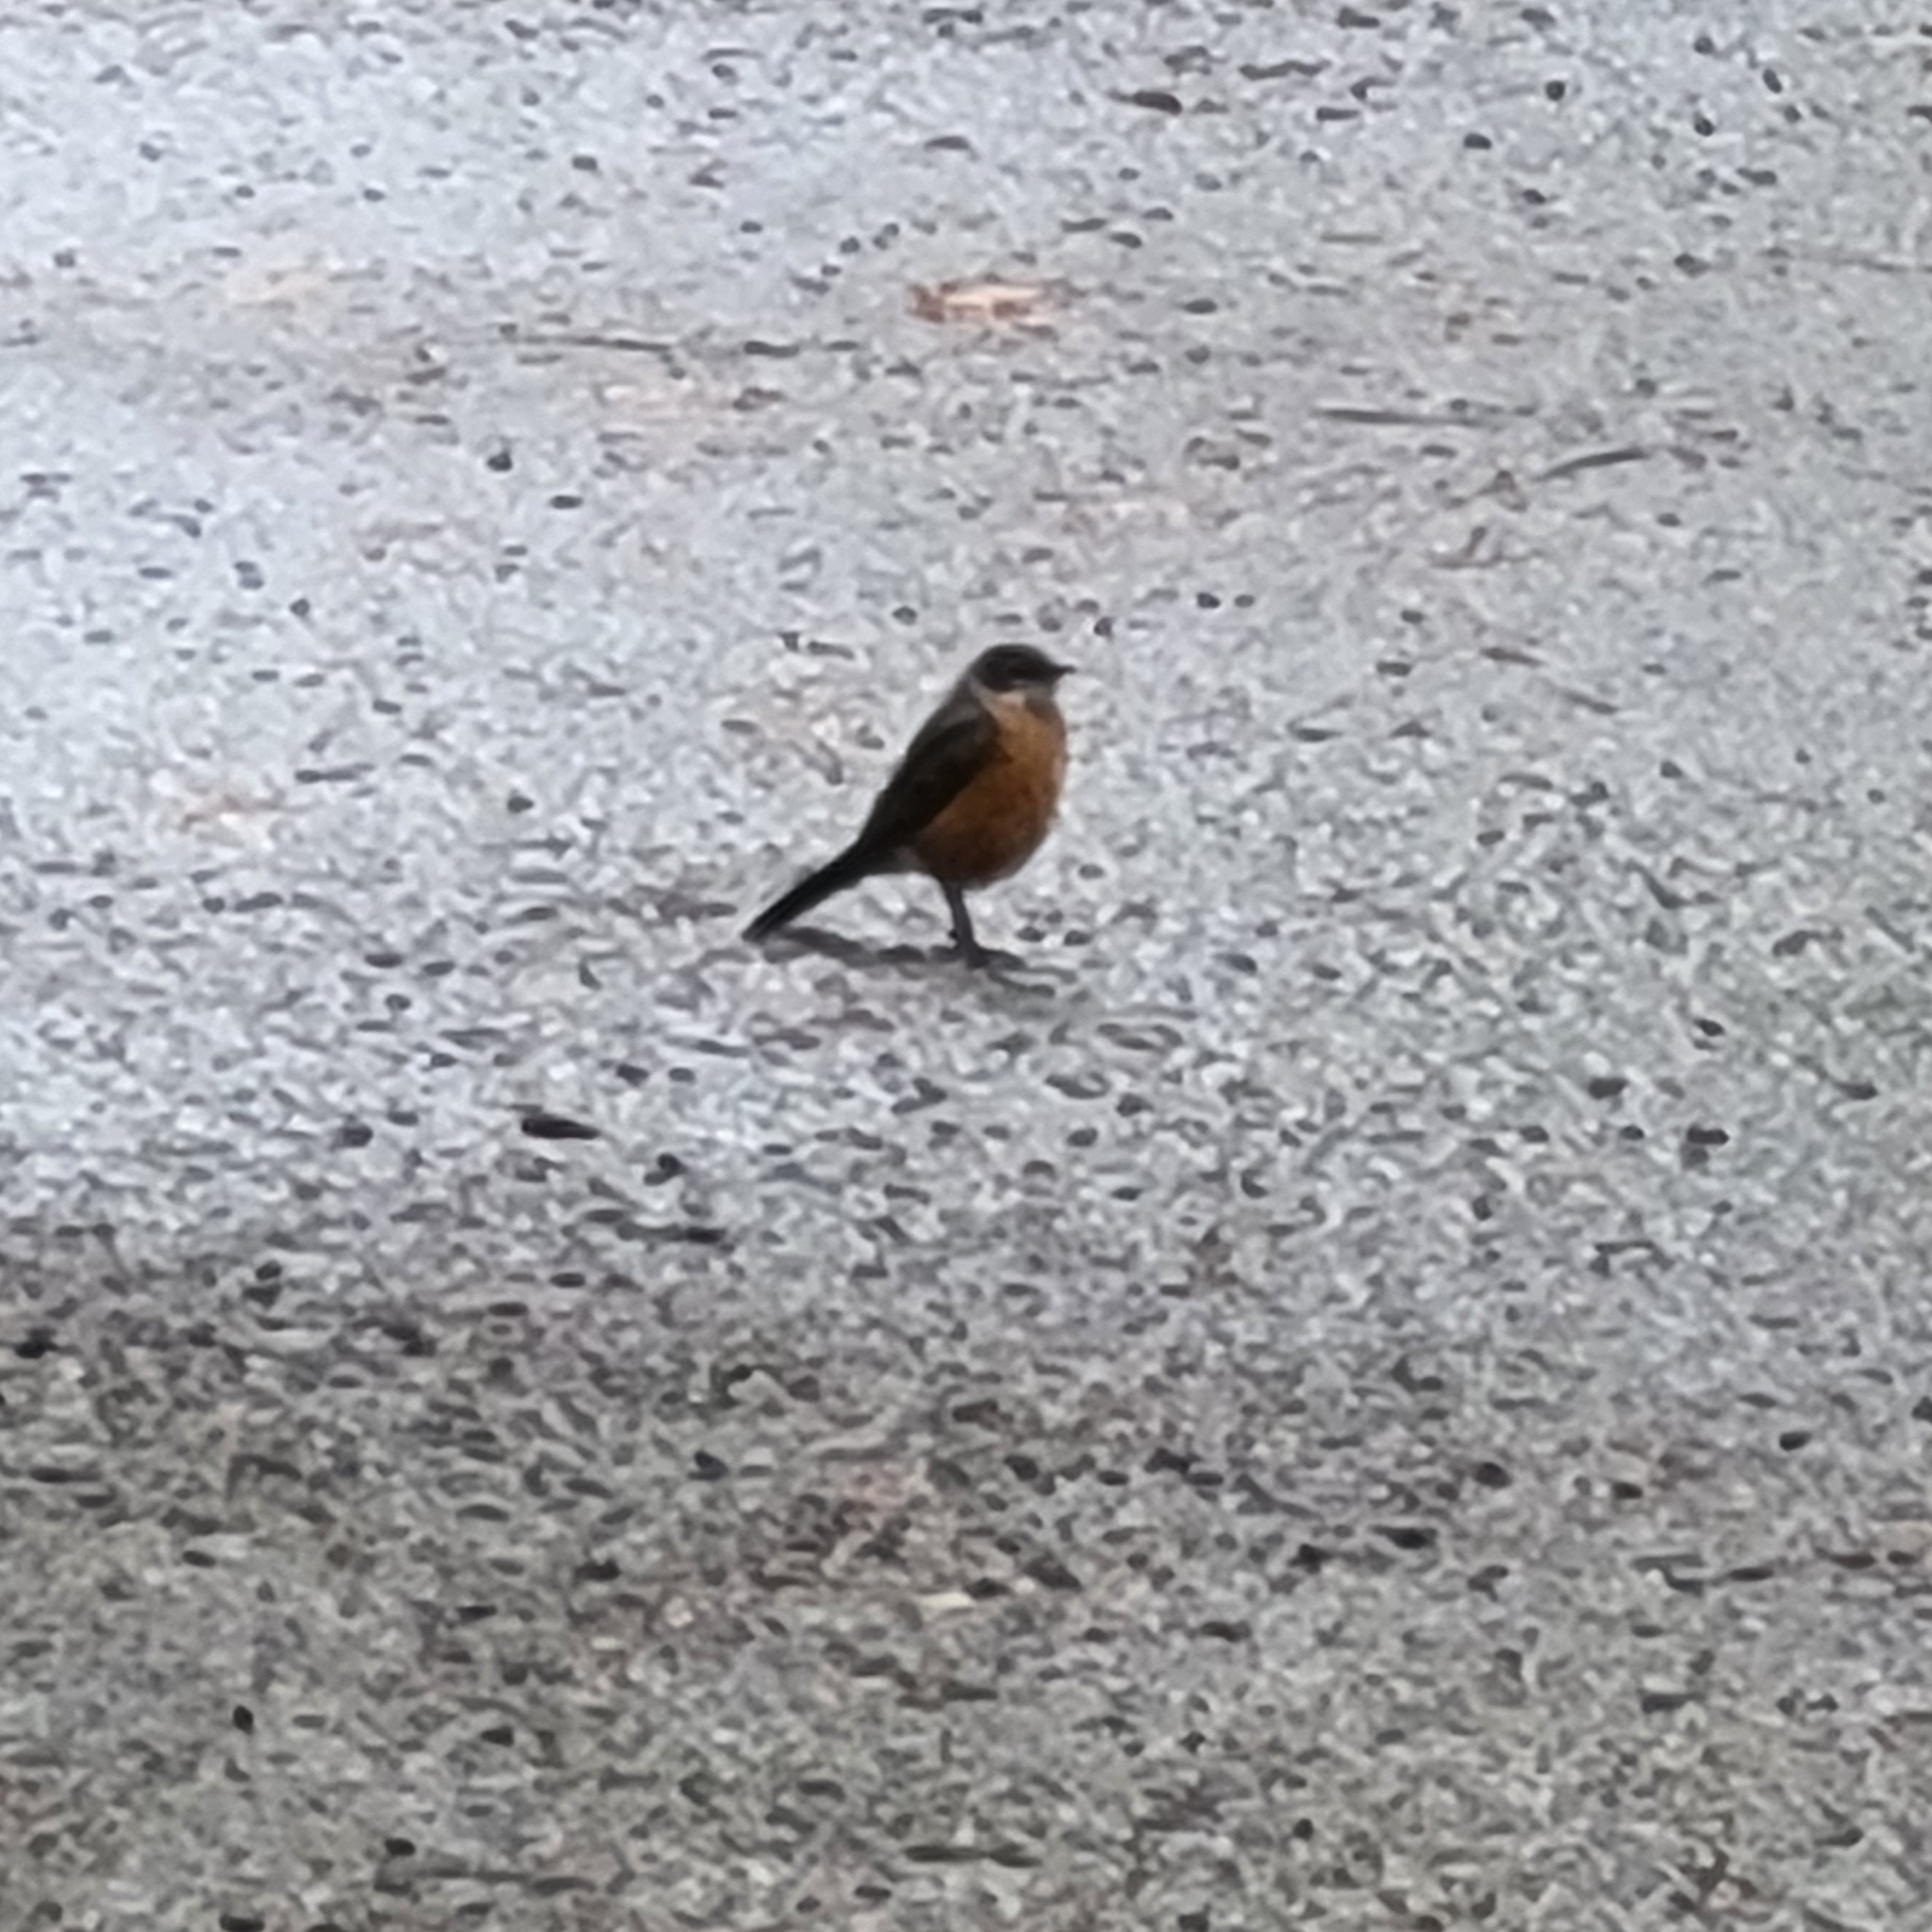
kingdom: Animalia
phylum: Chordata
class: Aves
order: Passeriformes
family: Turdidae
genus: Turdus
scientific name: Turdus migratorius
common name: American robin
